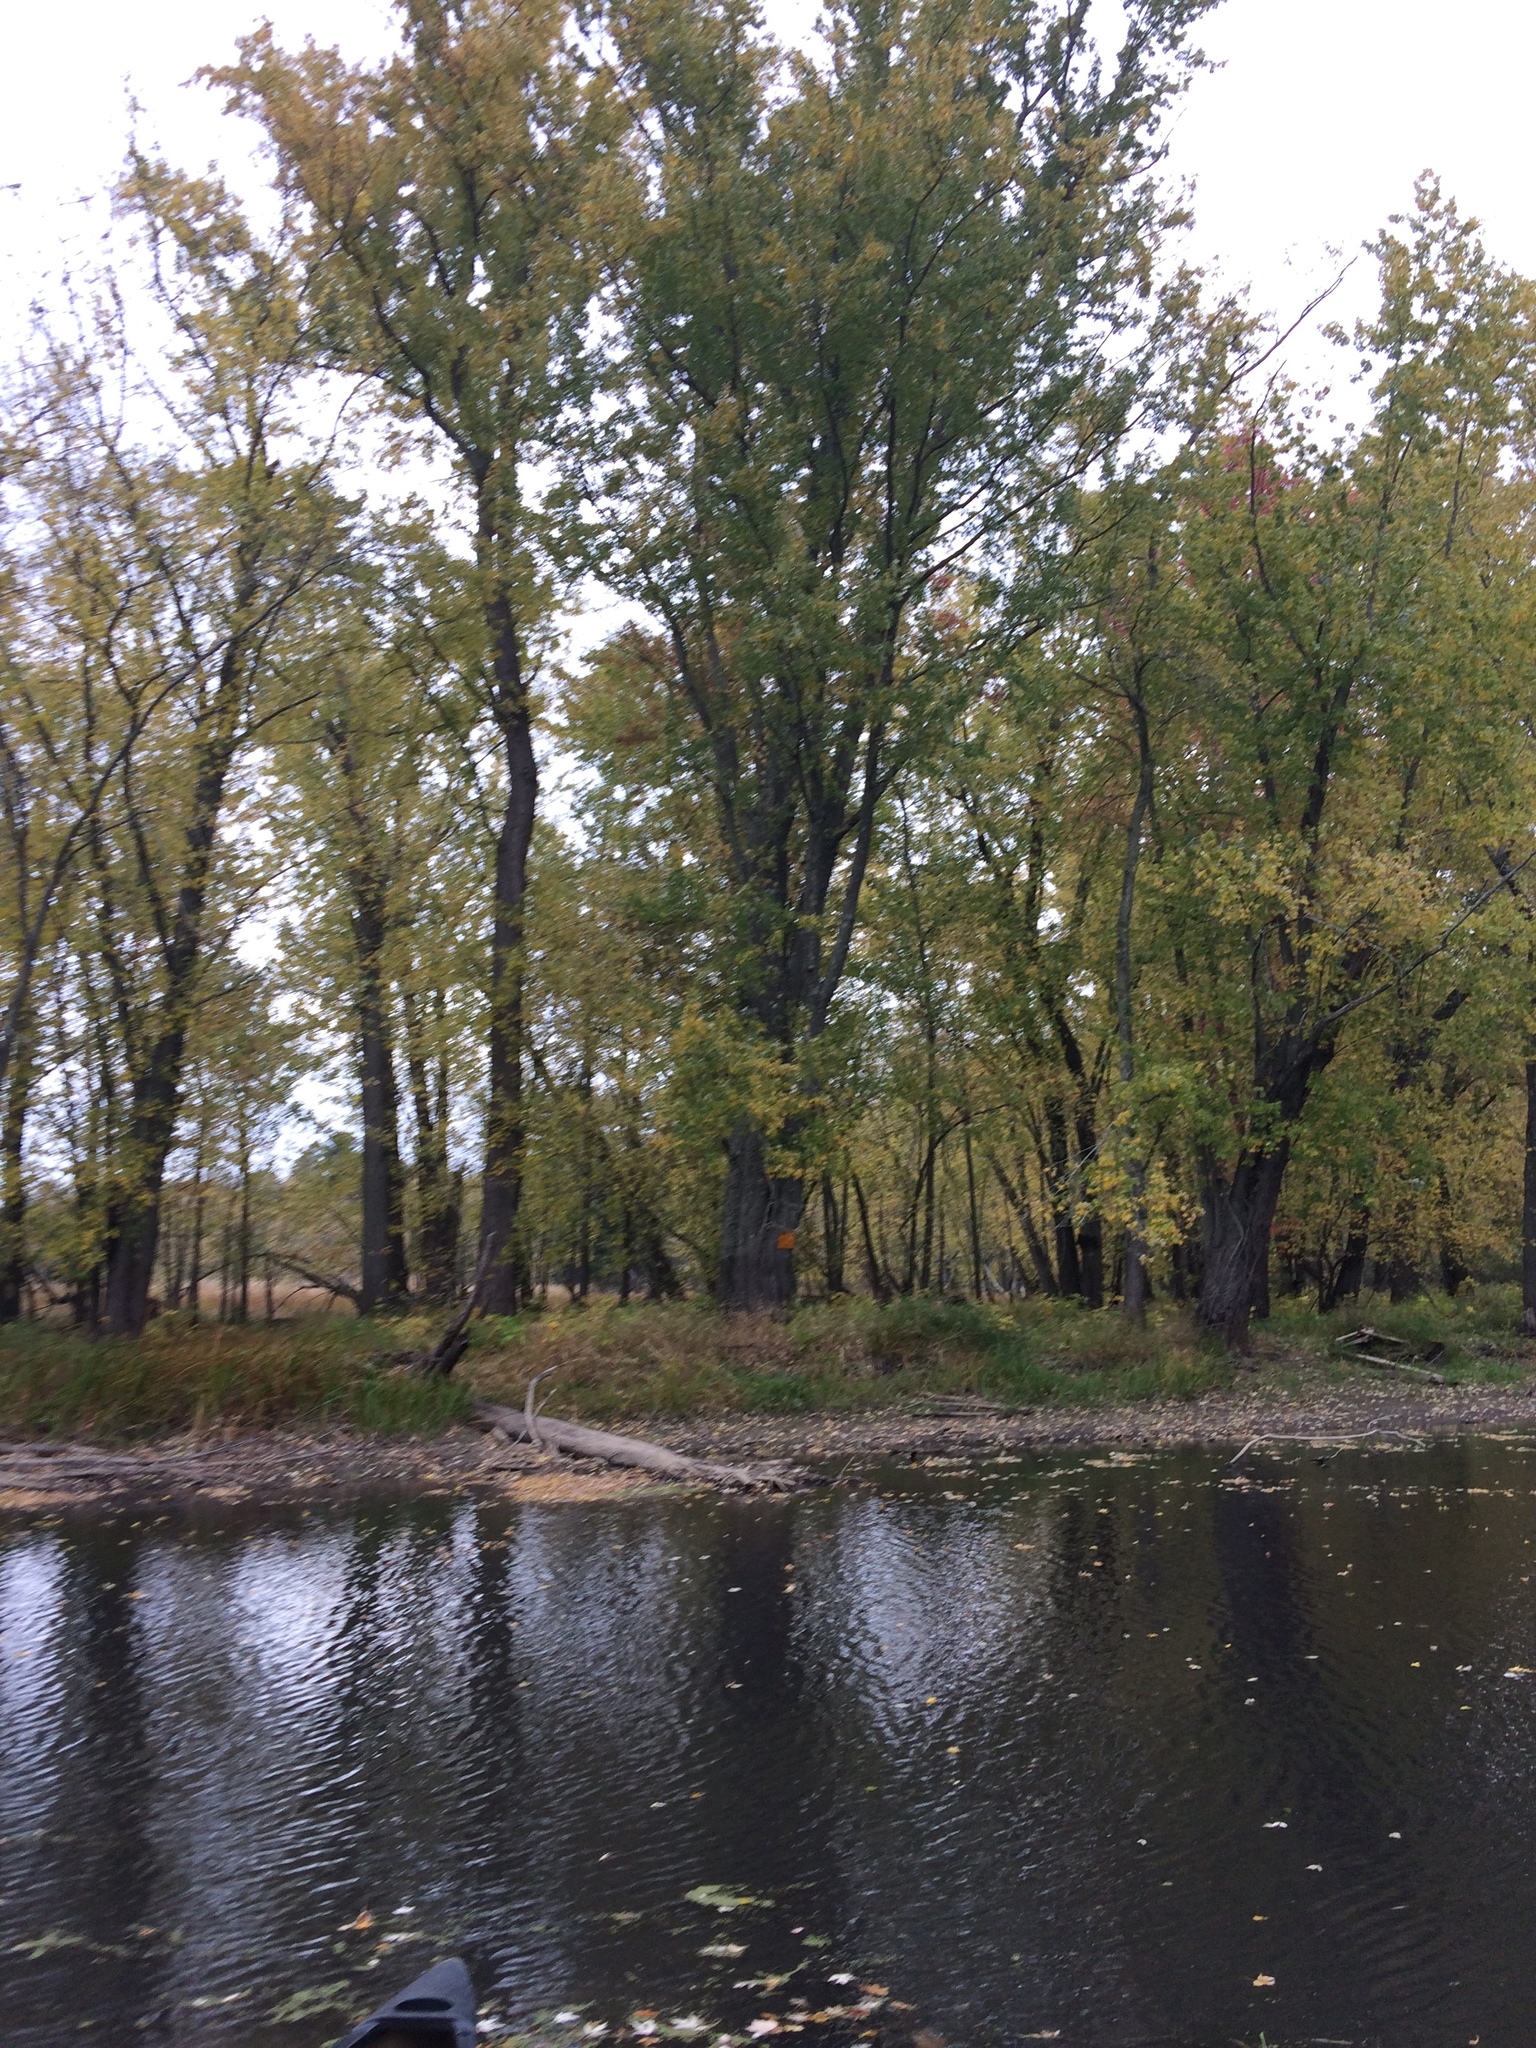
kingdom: Plantae
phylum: Tracheophyta
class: Magnoliopsida
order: Sapindales
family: Sapindaceae
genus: Acer
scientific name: Acer saccharinum
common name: Silver maple
